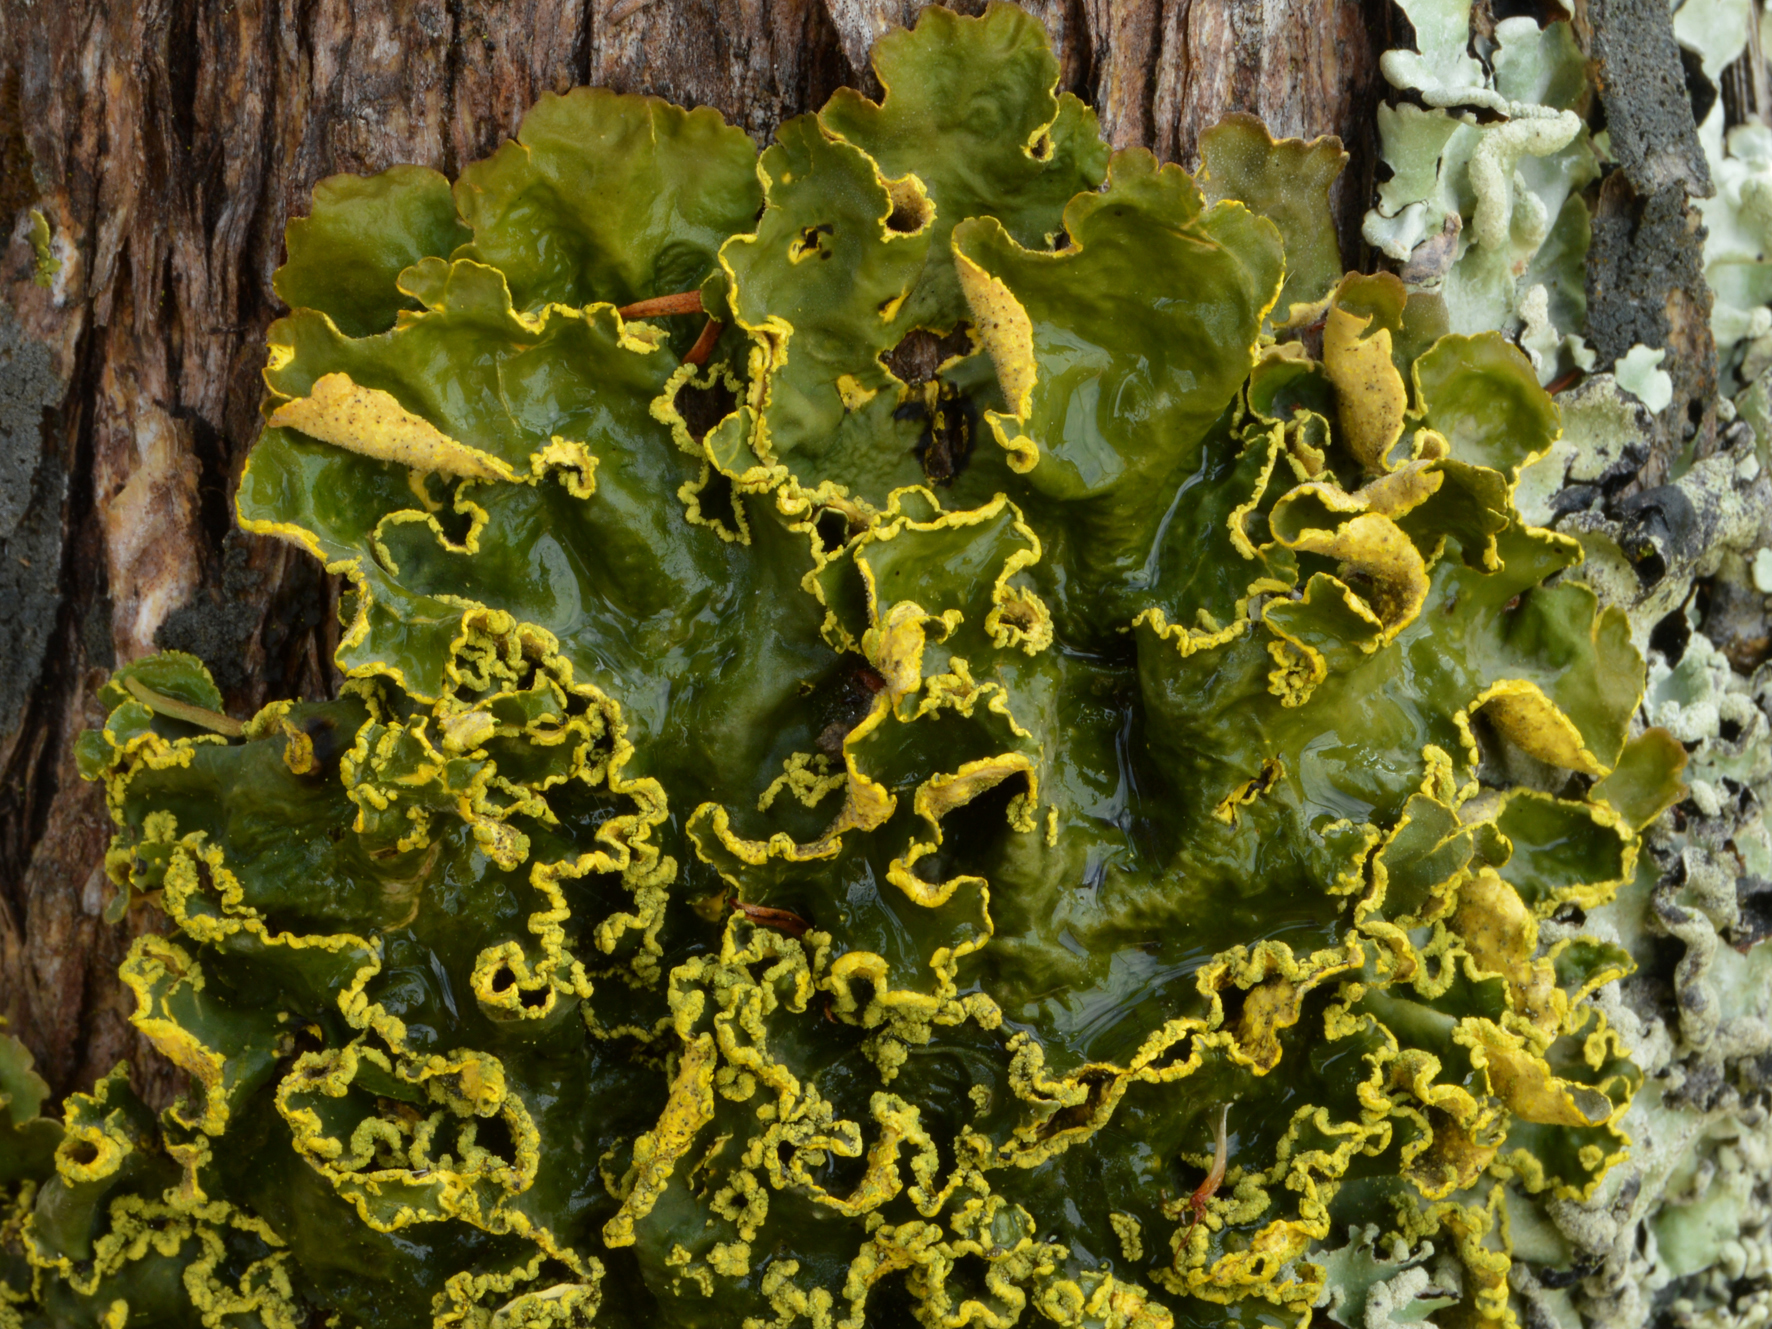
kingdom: Fungi
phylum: Ascomycota
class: Lecanoromycetes
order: Peltigerales
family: Lobariaceae
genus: Pseudocyphellaria
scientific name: Pseudocyphellaria aurata
